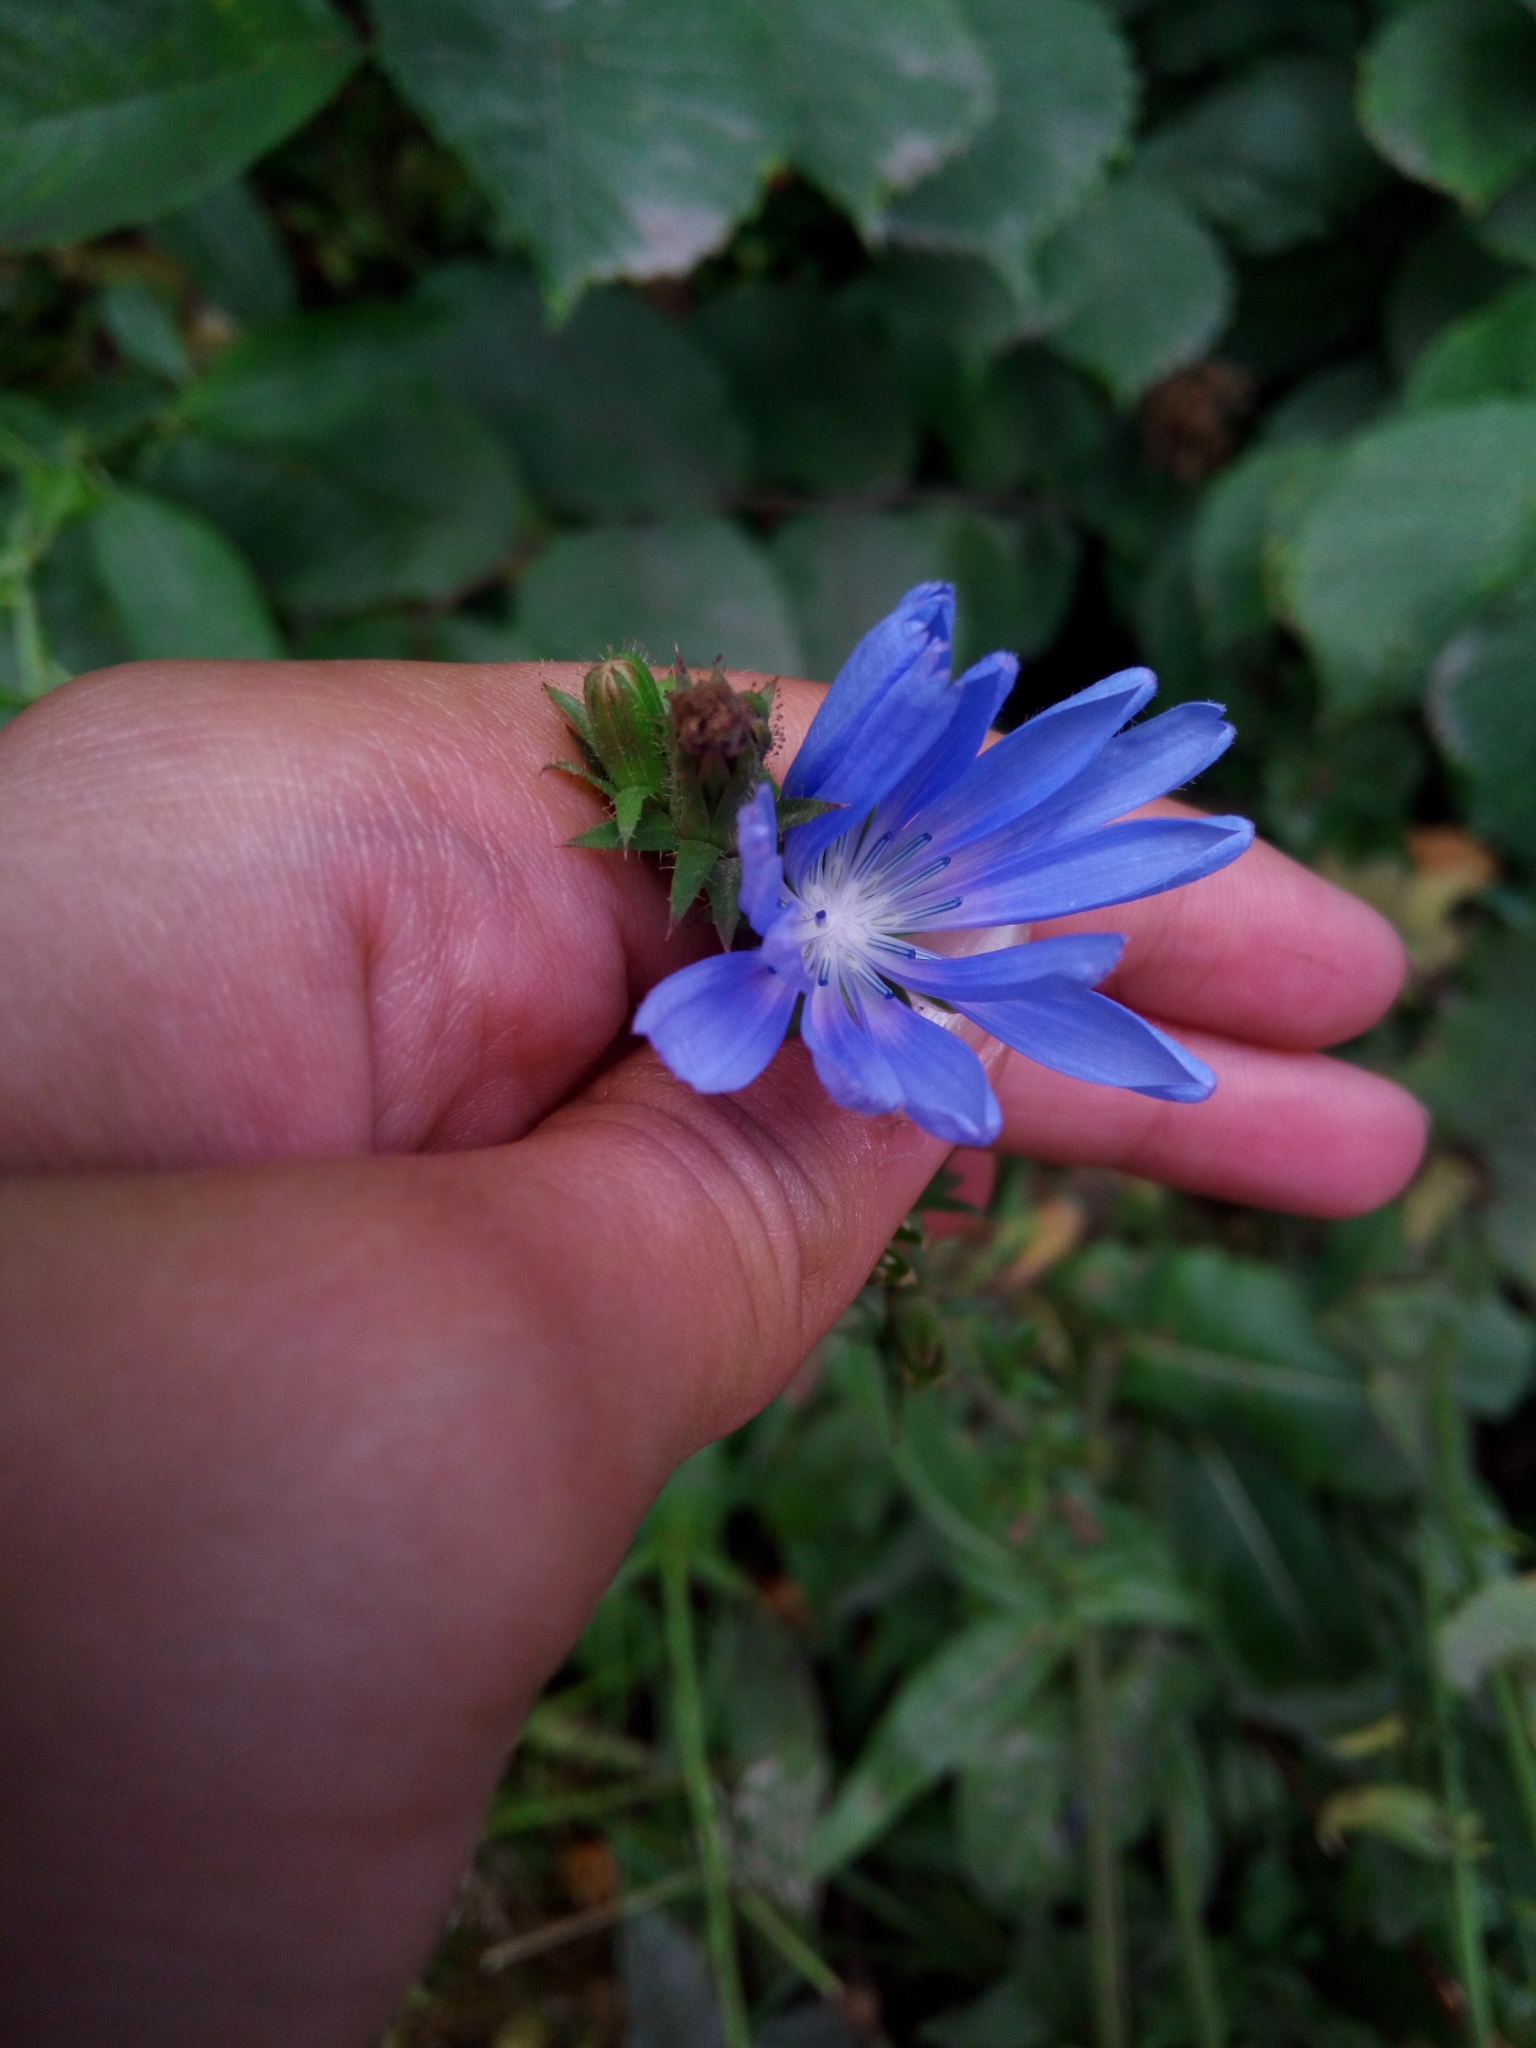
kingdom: Plantae
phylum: Tracheophyta
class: Magnoliopsida
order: Asterales
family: Asteraceae
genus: Cichorium
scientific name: Cichorium intybus
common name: Chicory
